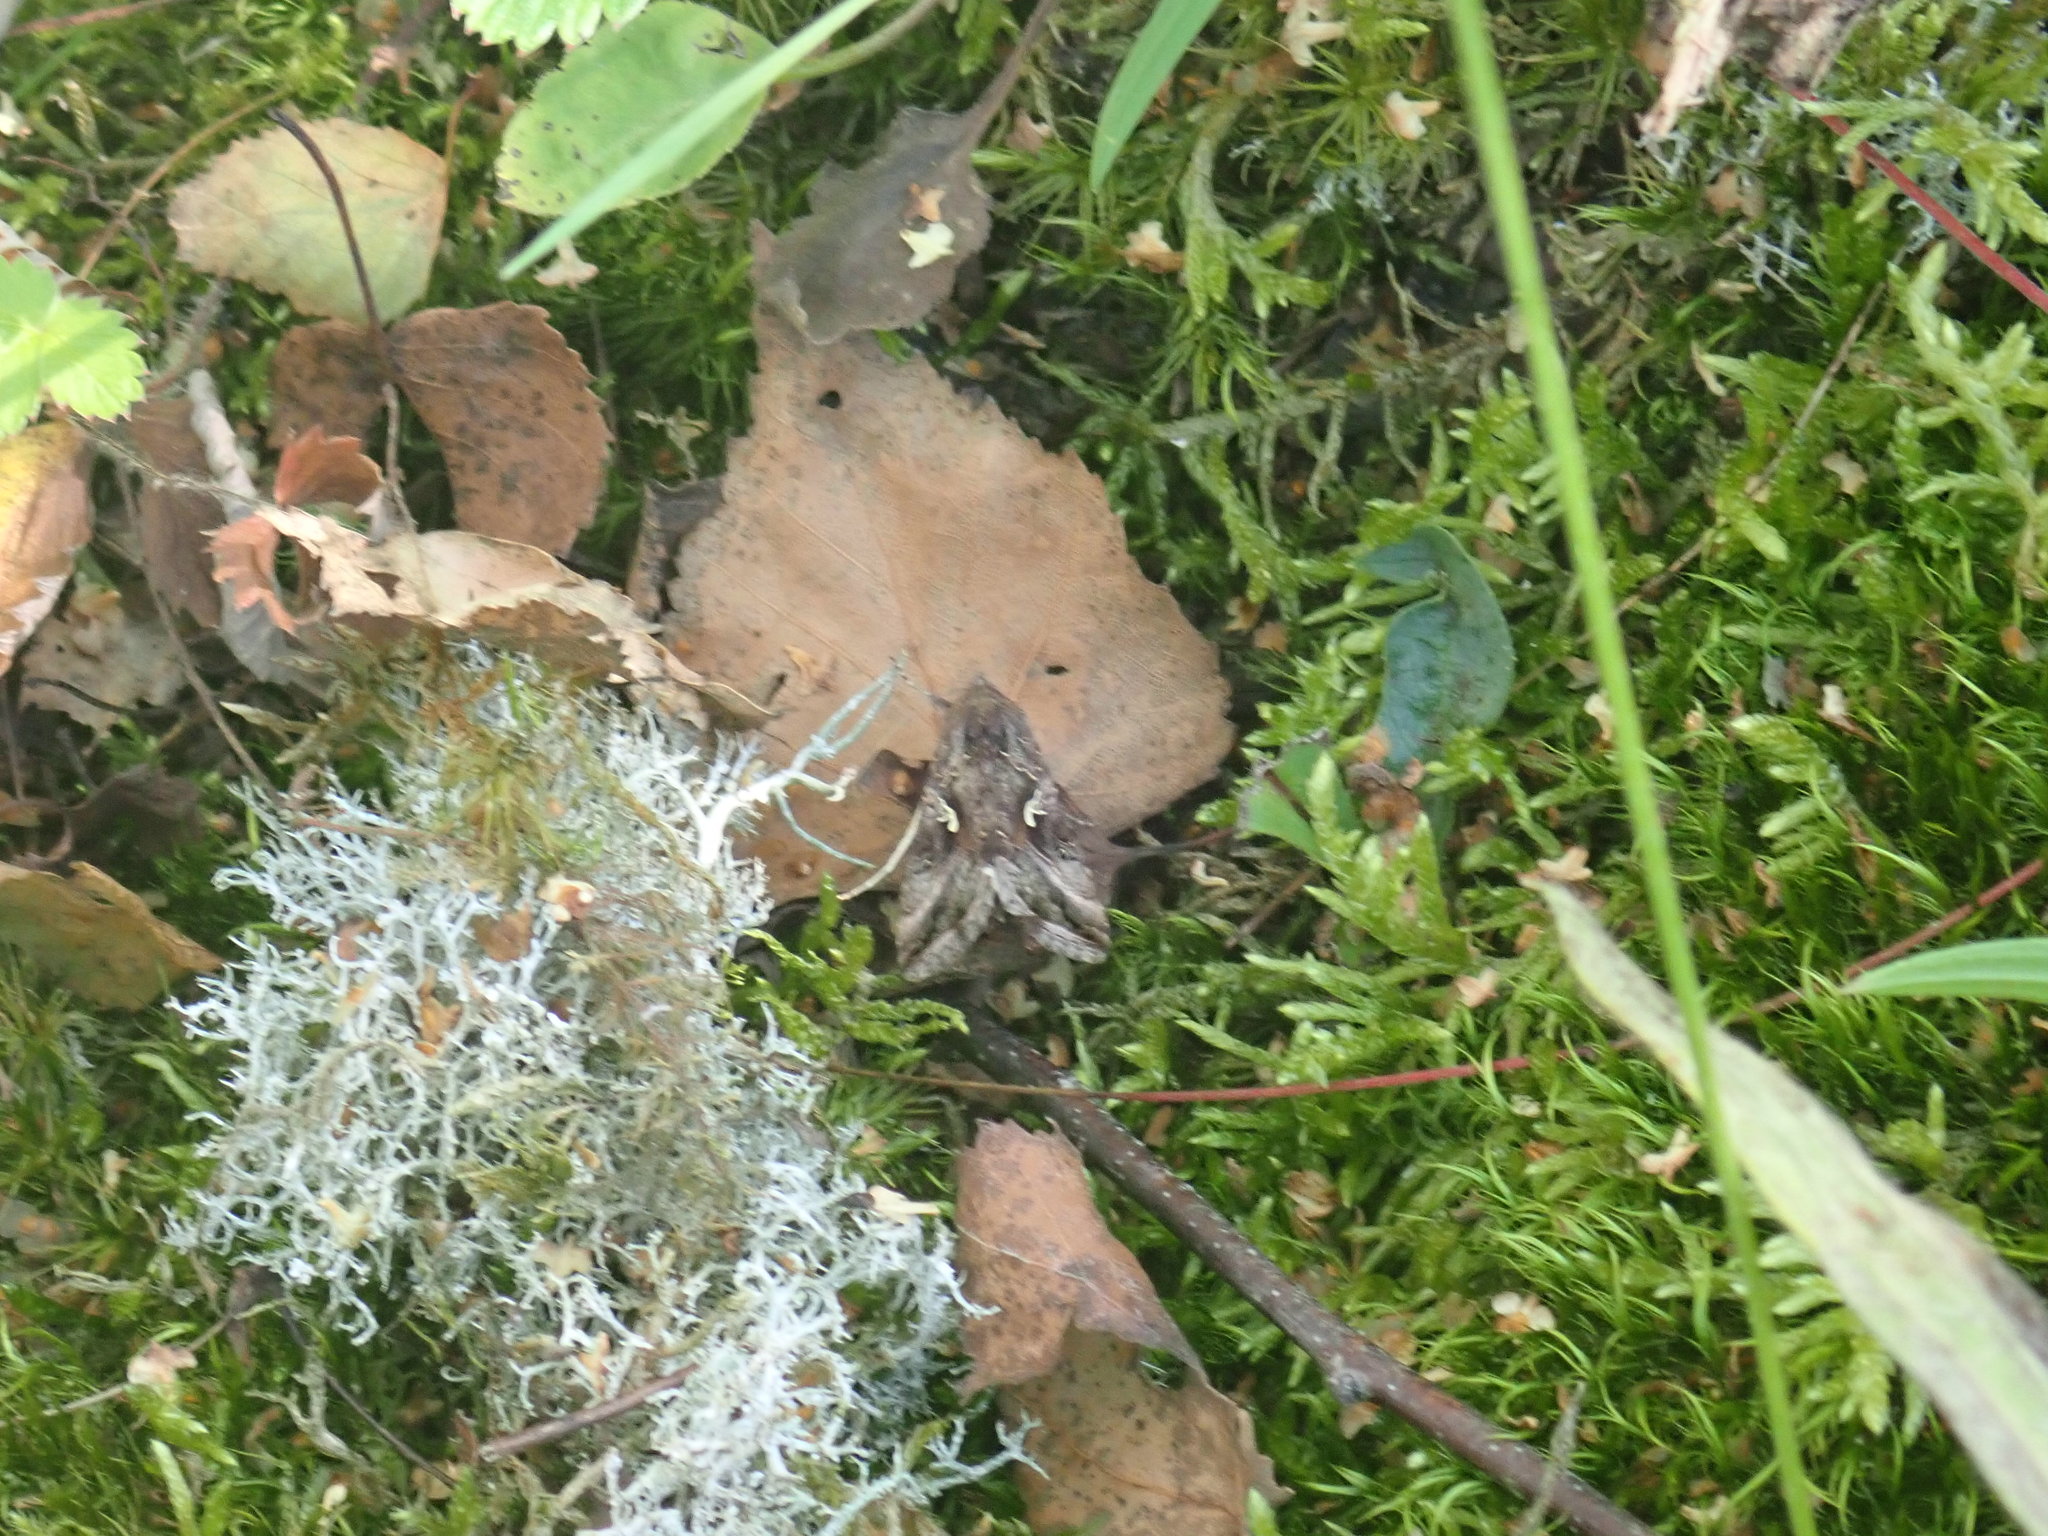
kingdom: Animalia
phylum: Arthropoda
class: Insecta
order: Lepidoptera
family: Noctuidae
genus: Autographa
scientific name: Autographa gamma
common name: Silver y
